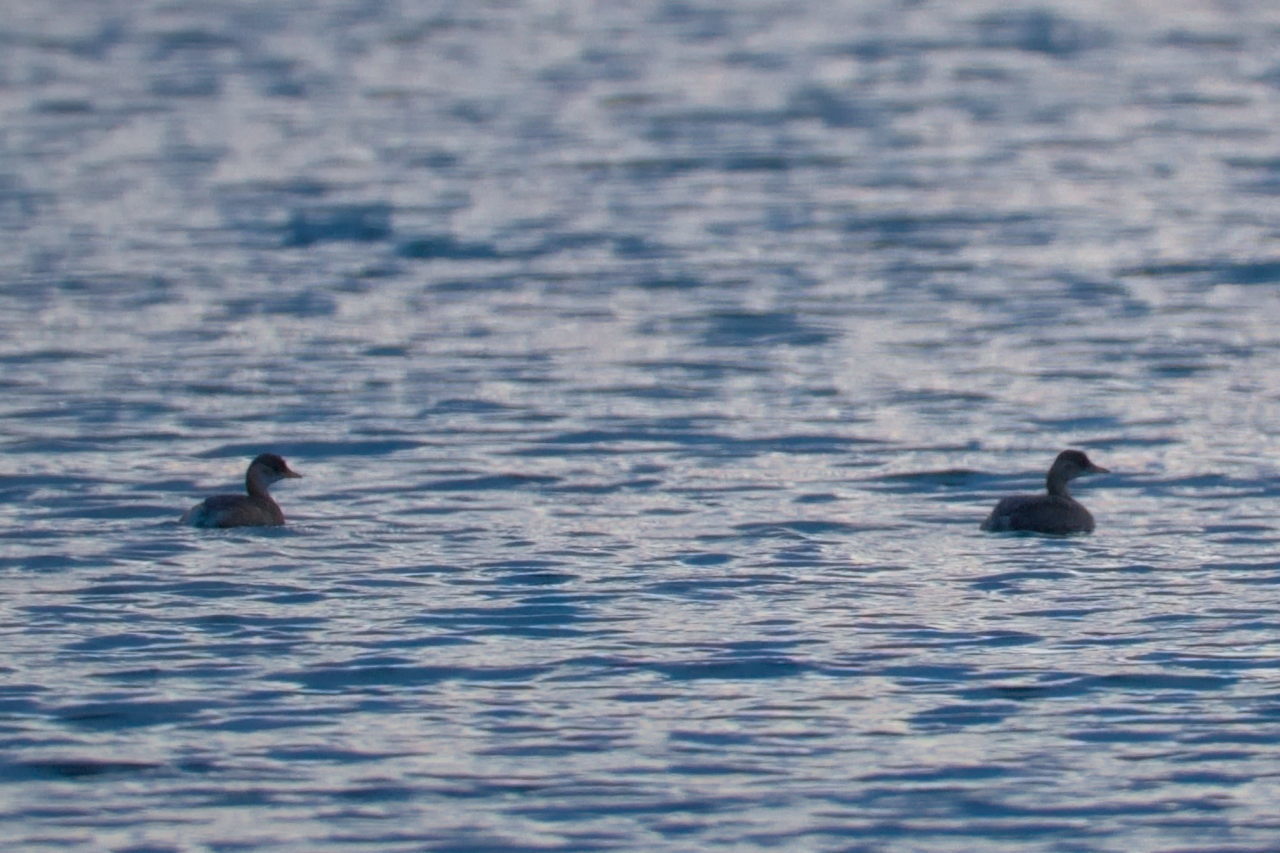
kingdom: Animalia
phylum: Chordata
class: Aves
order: Podicipediformes
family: Podicipedidae
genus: Tachybaptus
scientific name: Tachybaptus ruficollis
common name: Little grebe
